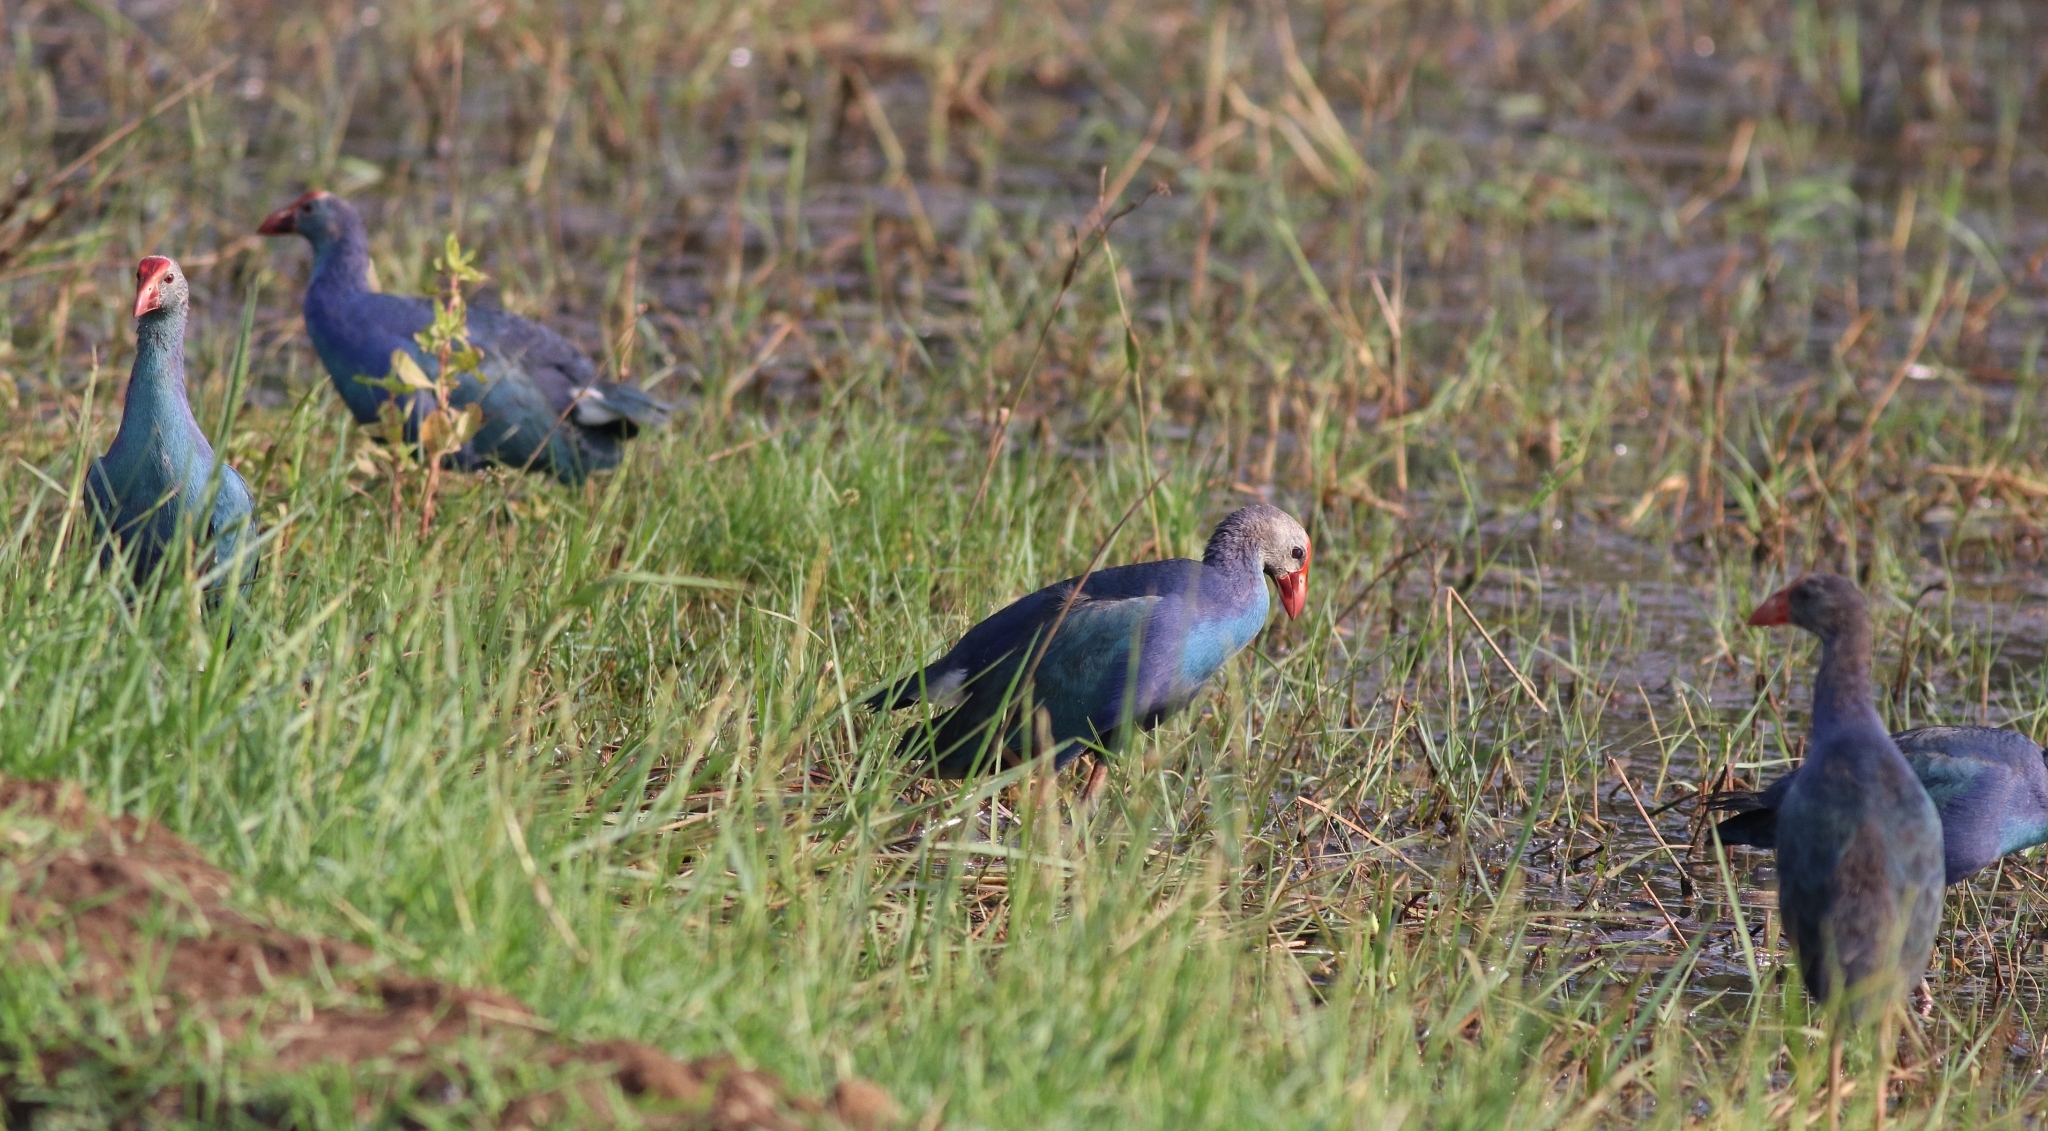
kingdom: Animalia
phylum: Chordata
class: Aves
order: Gruiformes
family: Rallidae
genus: Porphyrio
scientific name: Porphyrio porphyrio
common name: Purple swamphen
